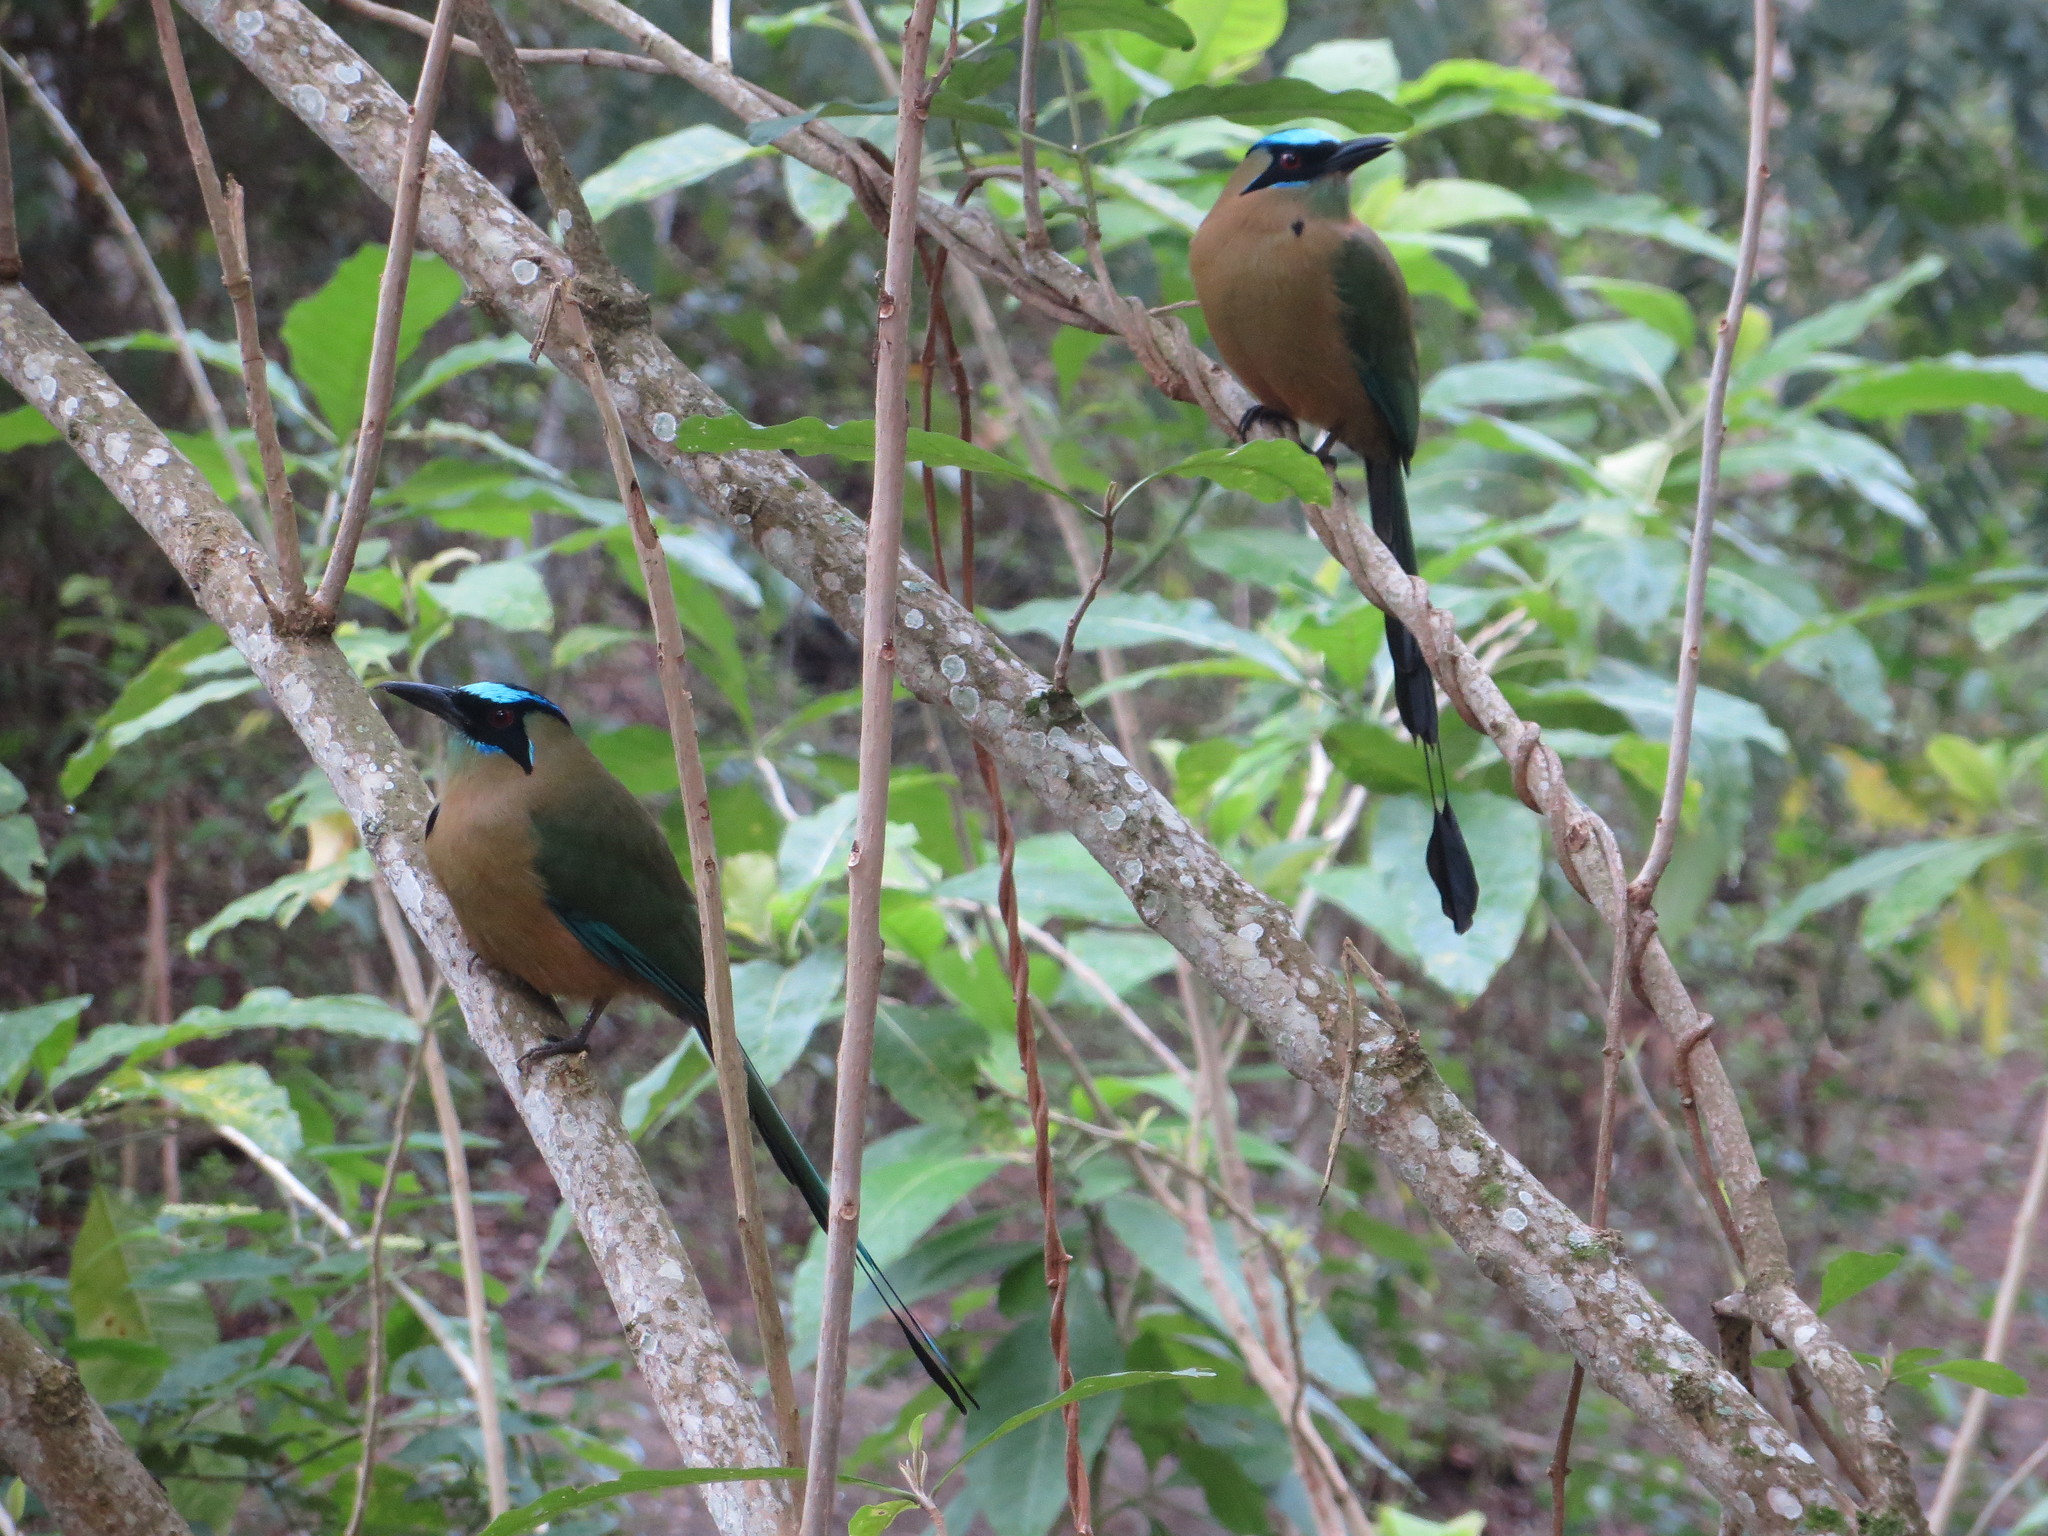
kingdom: Animalia
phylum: Chordata
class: Aves
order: Coraciiformes
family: Momotidae
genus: Momotus
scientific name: Momotus subrufescens
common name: Whooping motmot
